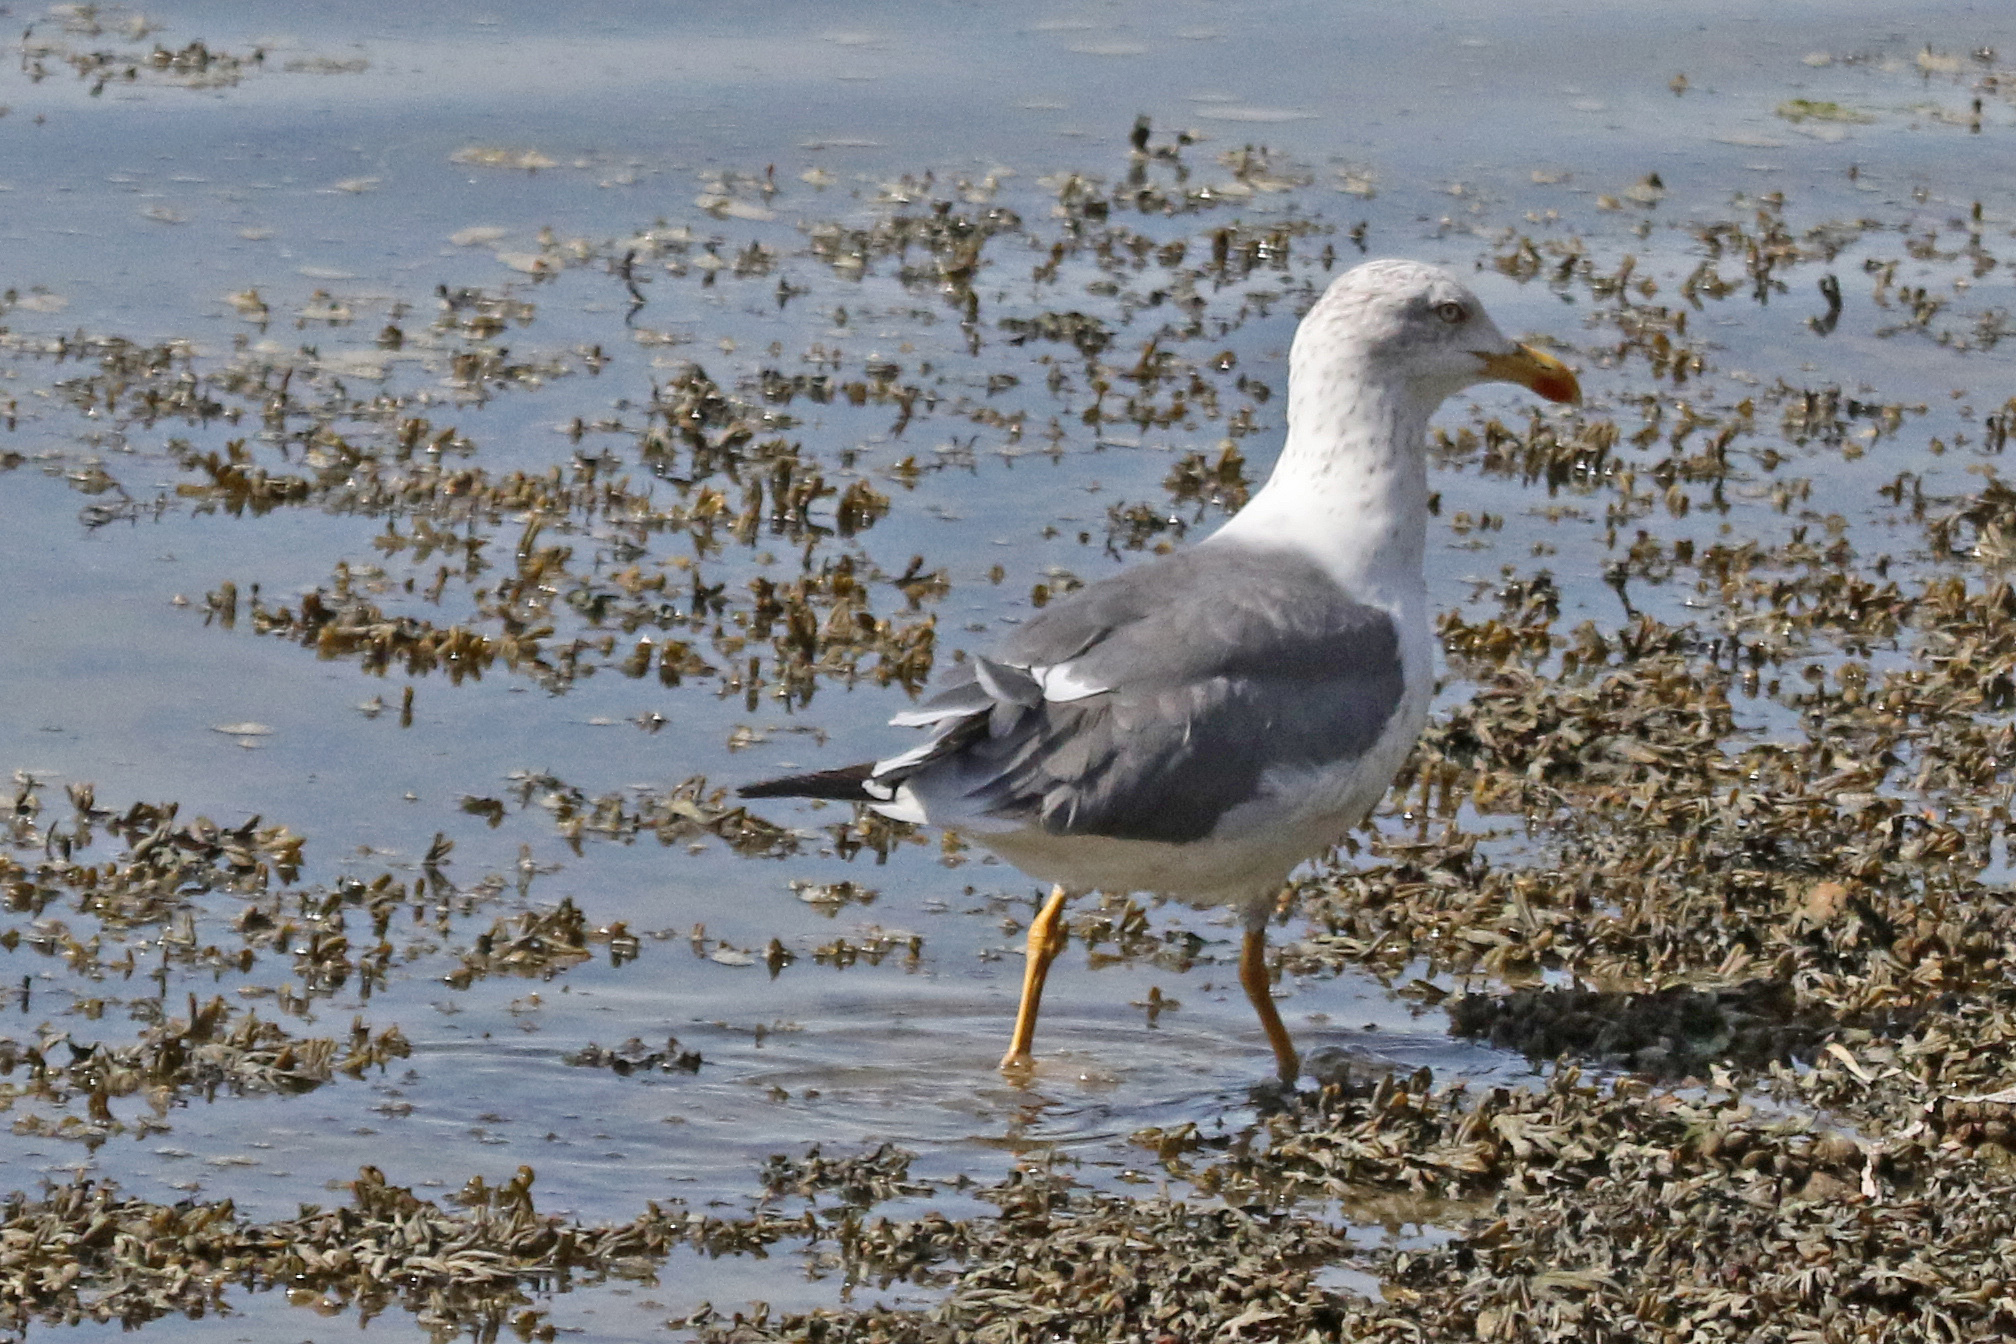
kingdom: Animalia
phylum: Chordata
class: Aves
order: Charadriiformes
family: Laridae
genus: Larus
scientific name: Larus fuscus
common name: Lesser black-backed gull
